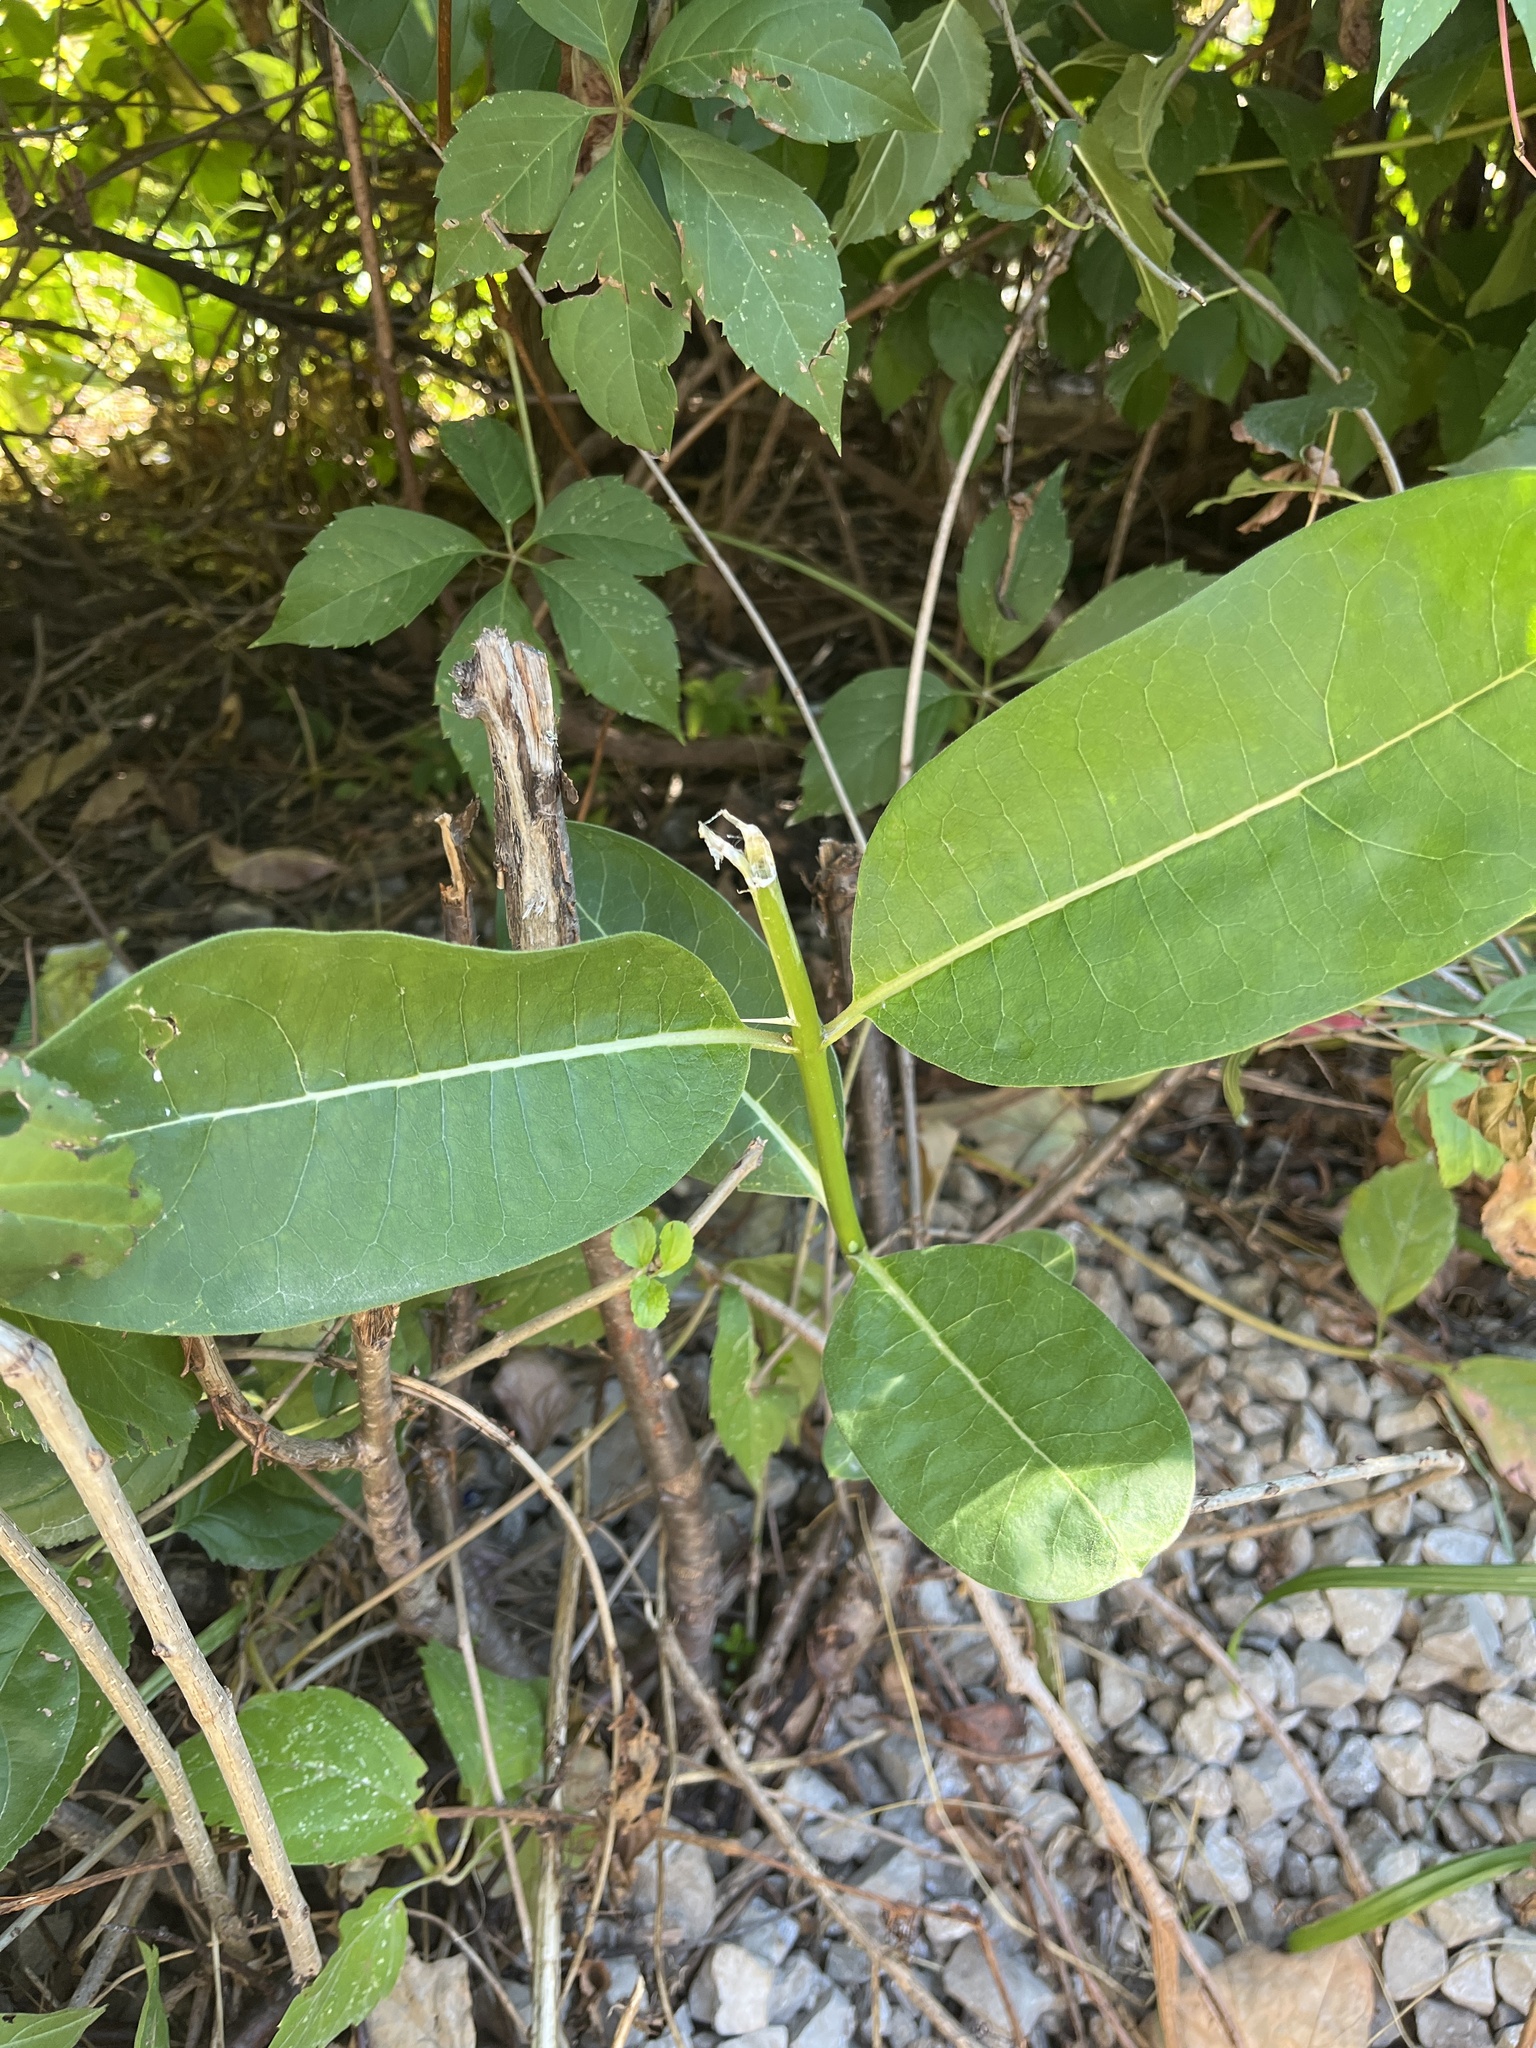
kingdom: Plantae
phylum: Tracheophyta
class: Magnoliopsida
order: Gentianales
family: Apocynaceae
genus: Asclepias
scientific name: Asclepias syriaca
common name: Common milkweed
